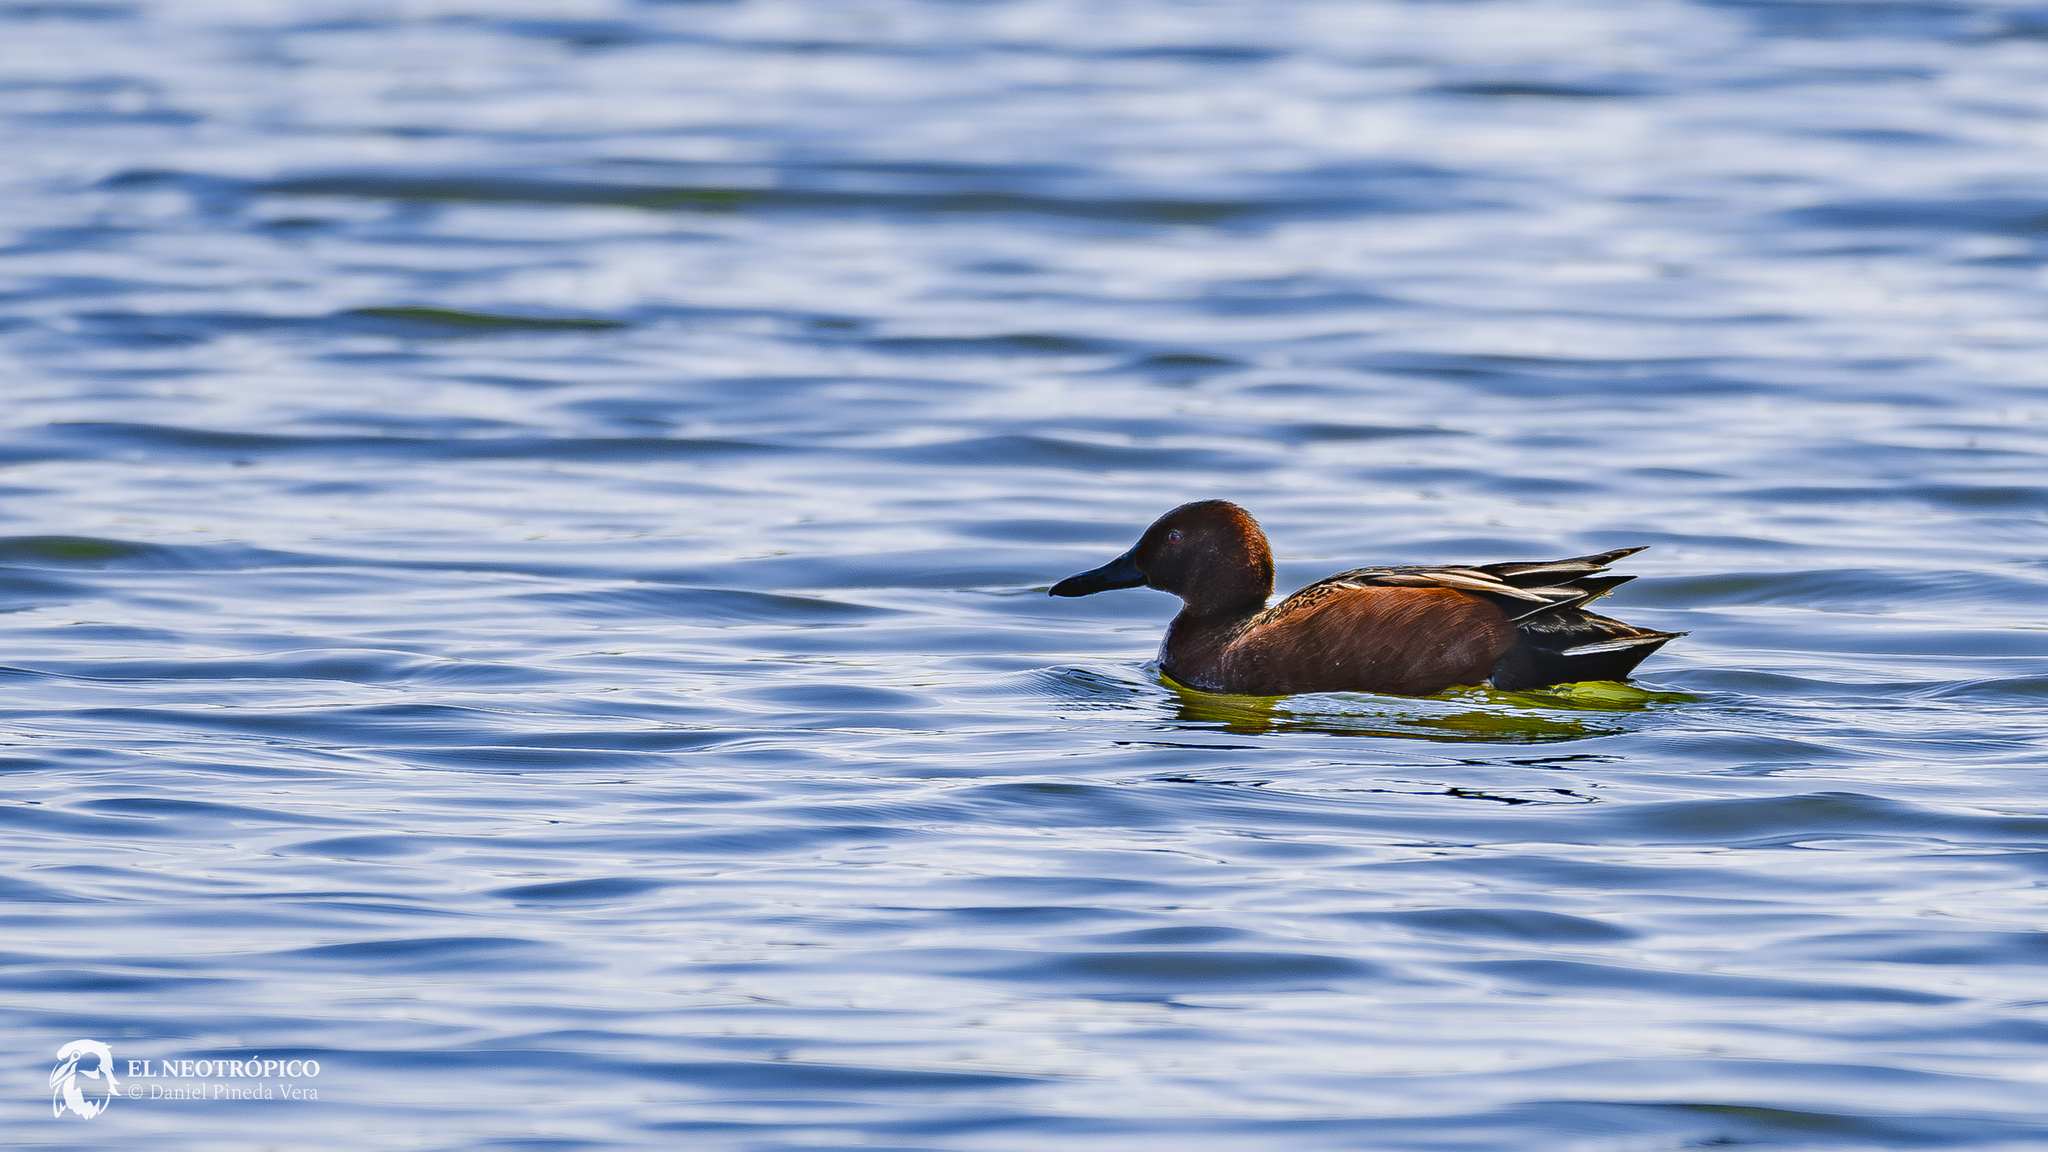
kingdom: Animalia
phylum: Chordata
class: Aves
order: Anseriformes
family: Anatidae
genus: Spatula
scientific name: Spatula cyanoptera
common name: Cinnamon teal
